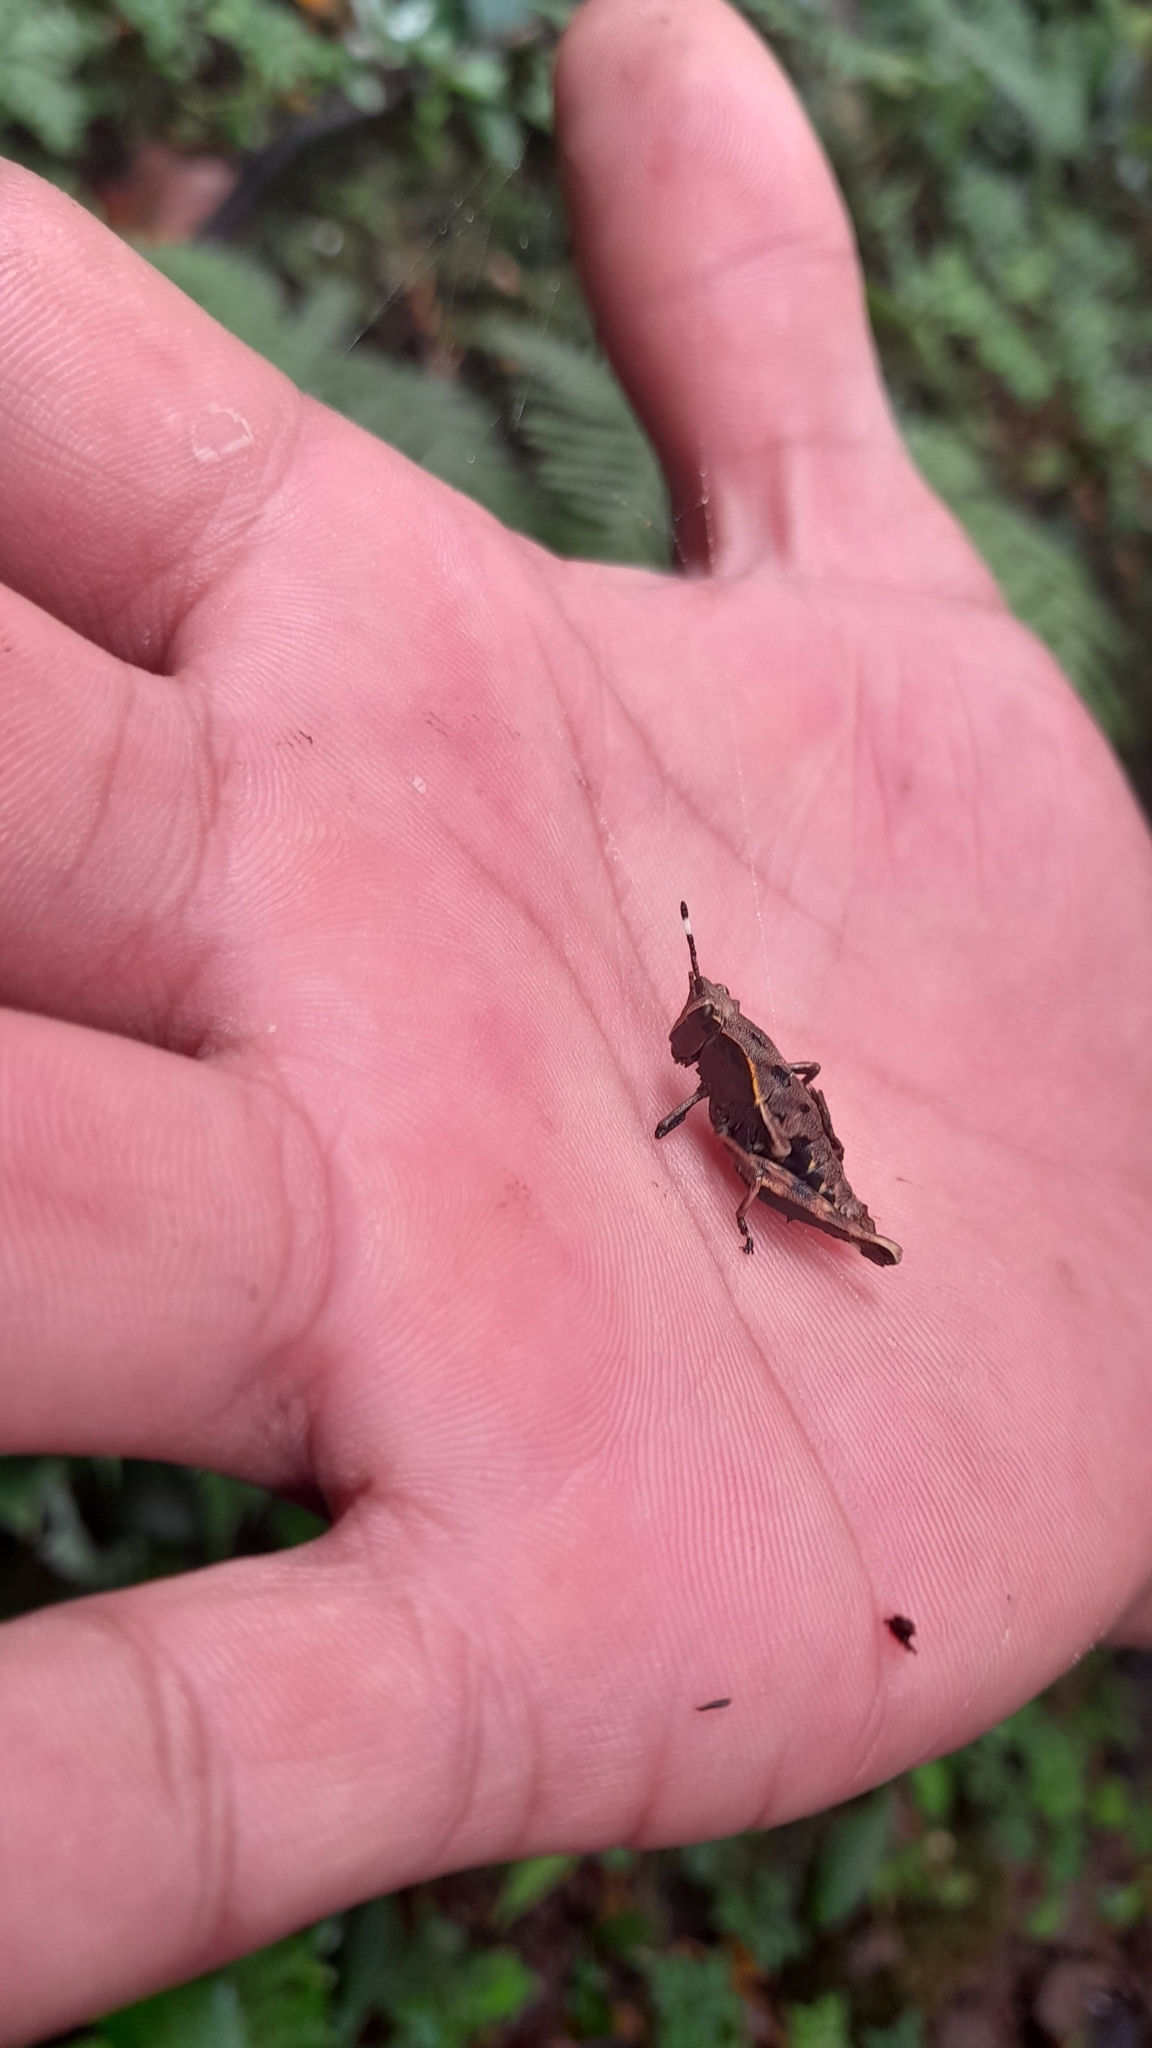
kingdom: Animalia
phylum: Arthropoda
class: Insecta
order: Orthoptera
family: Acrididae
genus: Microtylopteryx
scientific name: Microtylopteryx fusiformis
